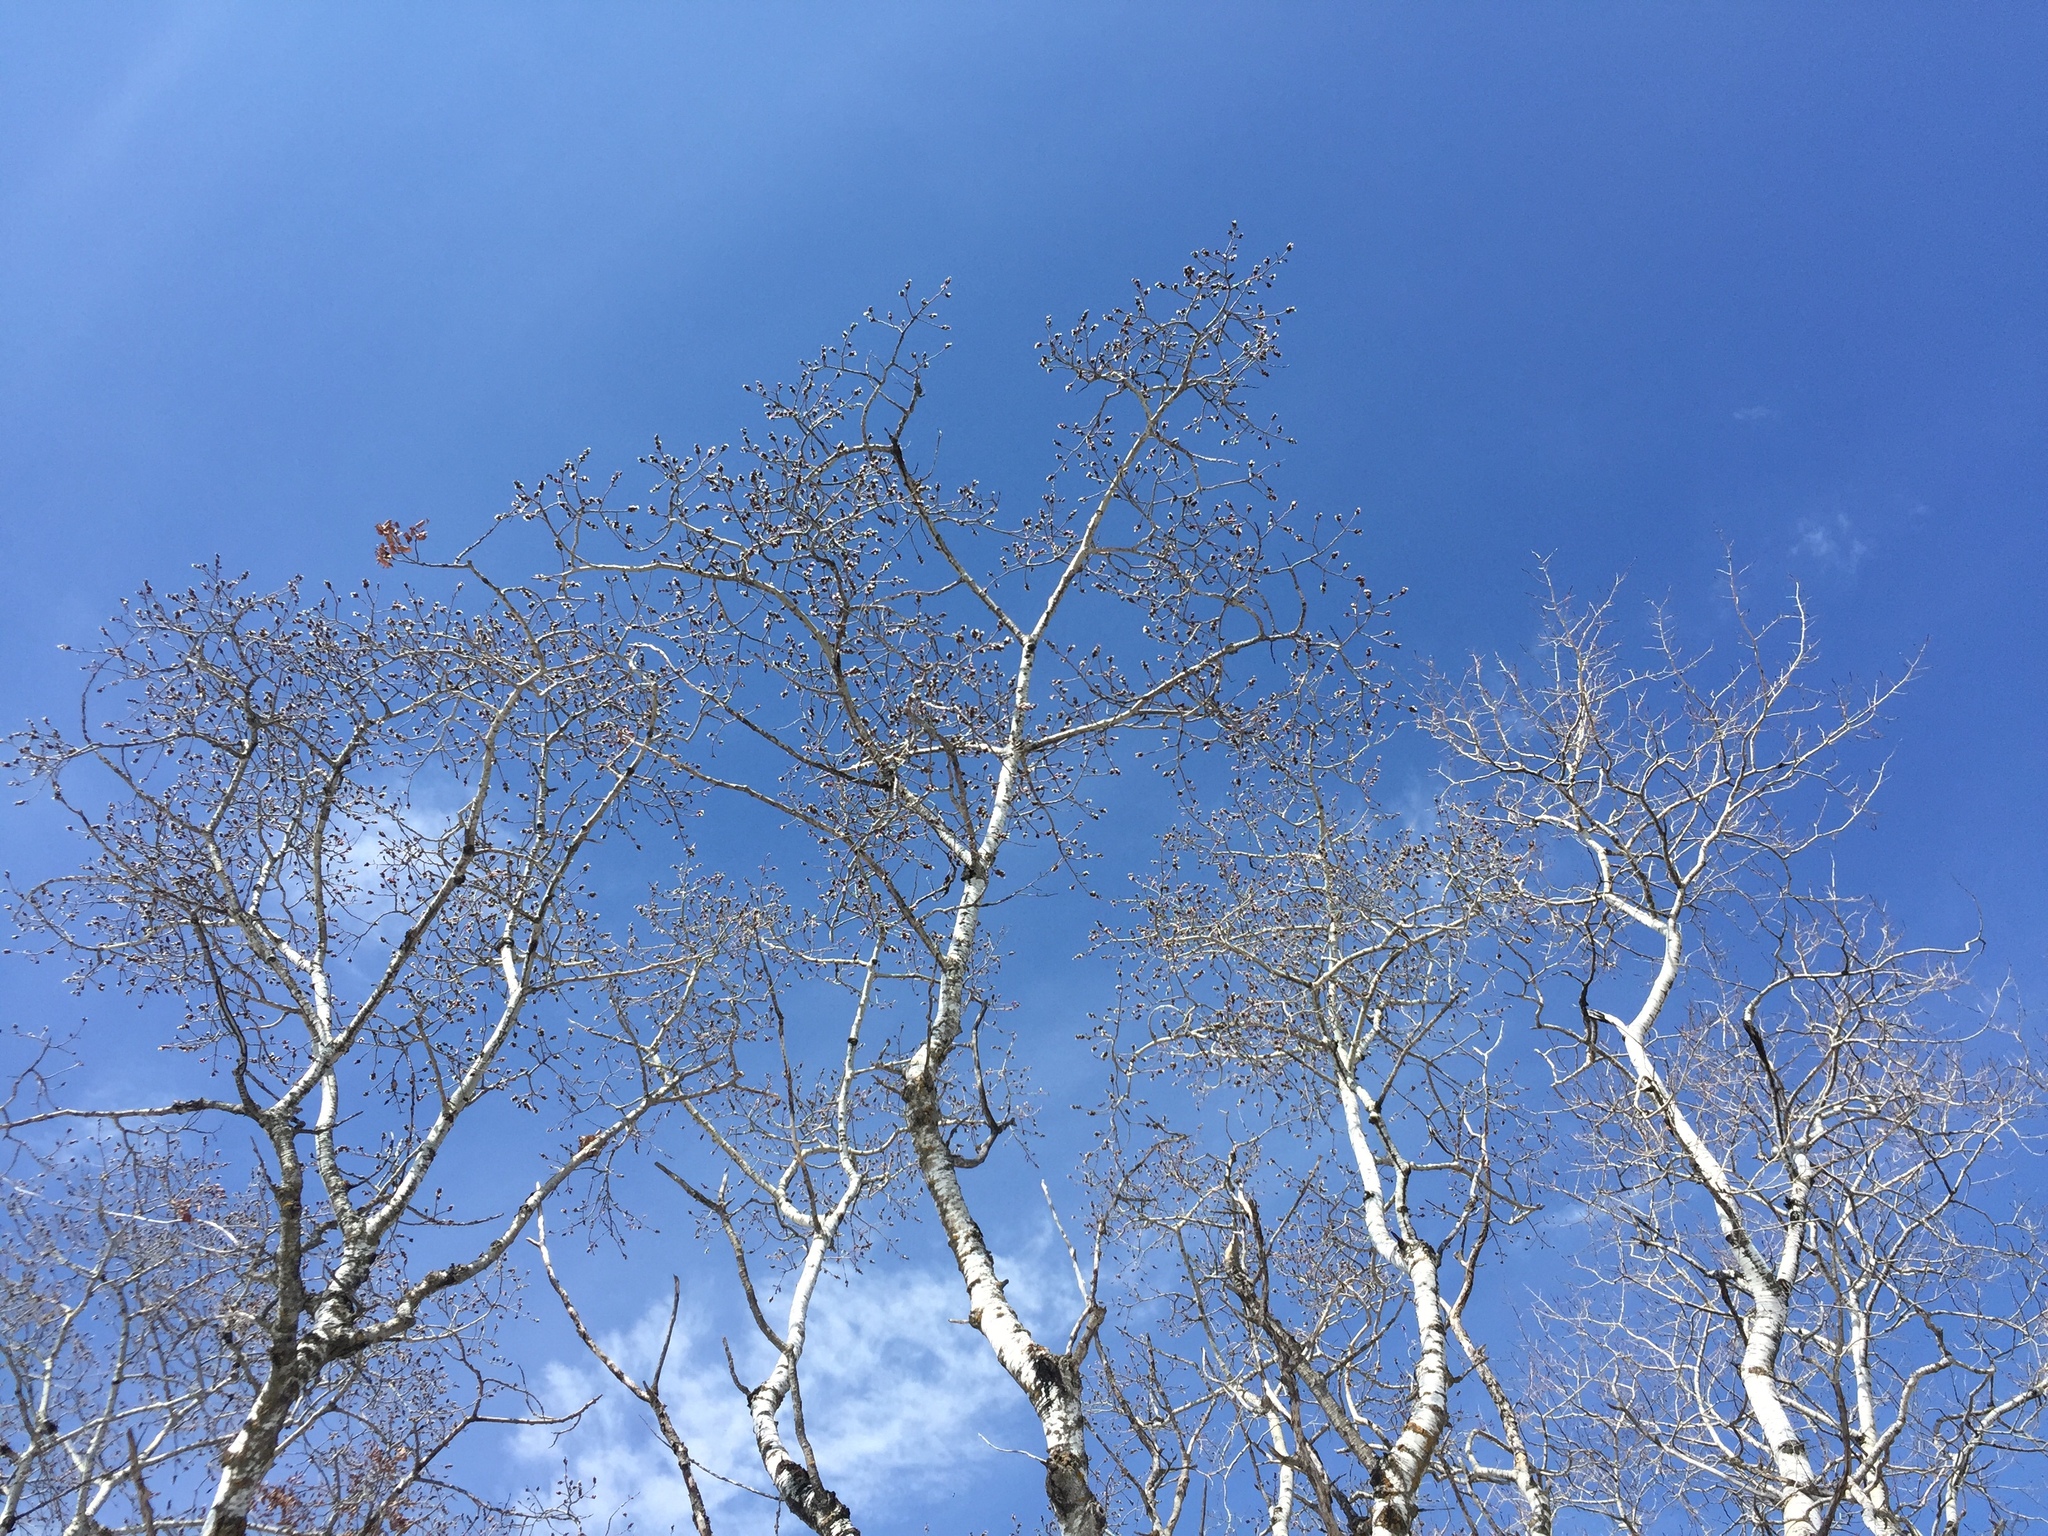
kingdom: Plantae
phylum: Tracheophyta
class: Magnoliopsida
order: Malpighiales
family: Salicaceae
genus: Populus
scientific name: Populus tremuloides
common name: Quaking aspen
